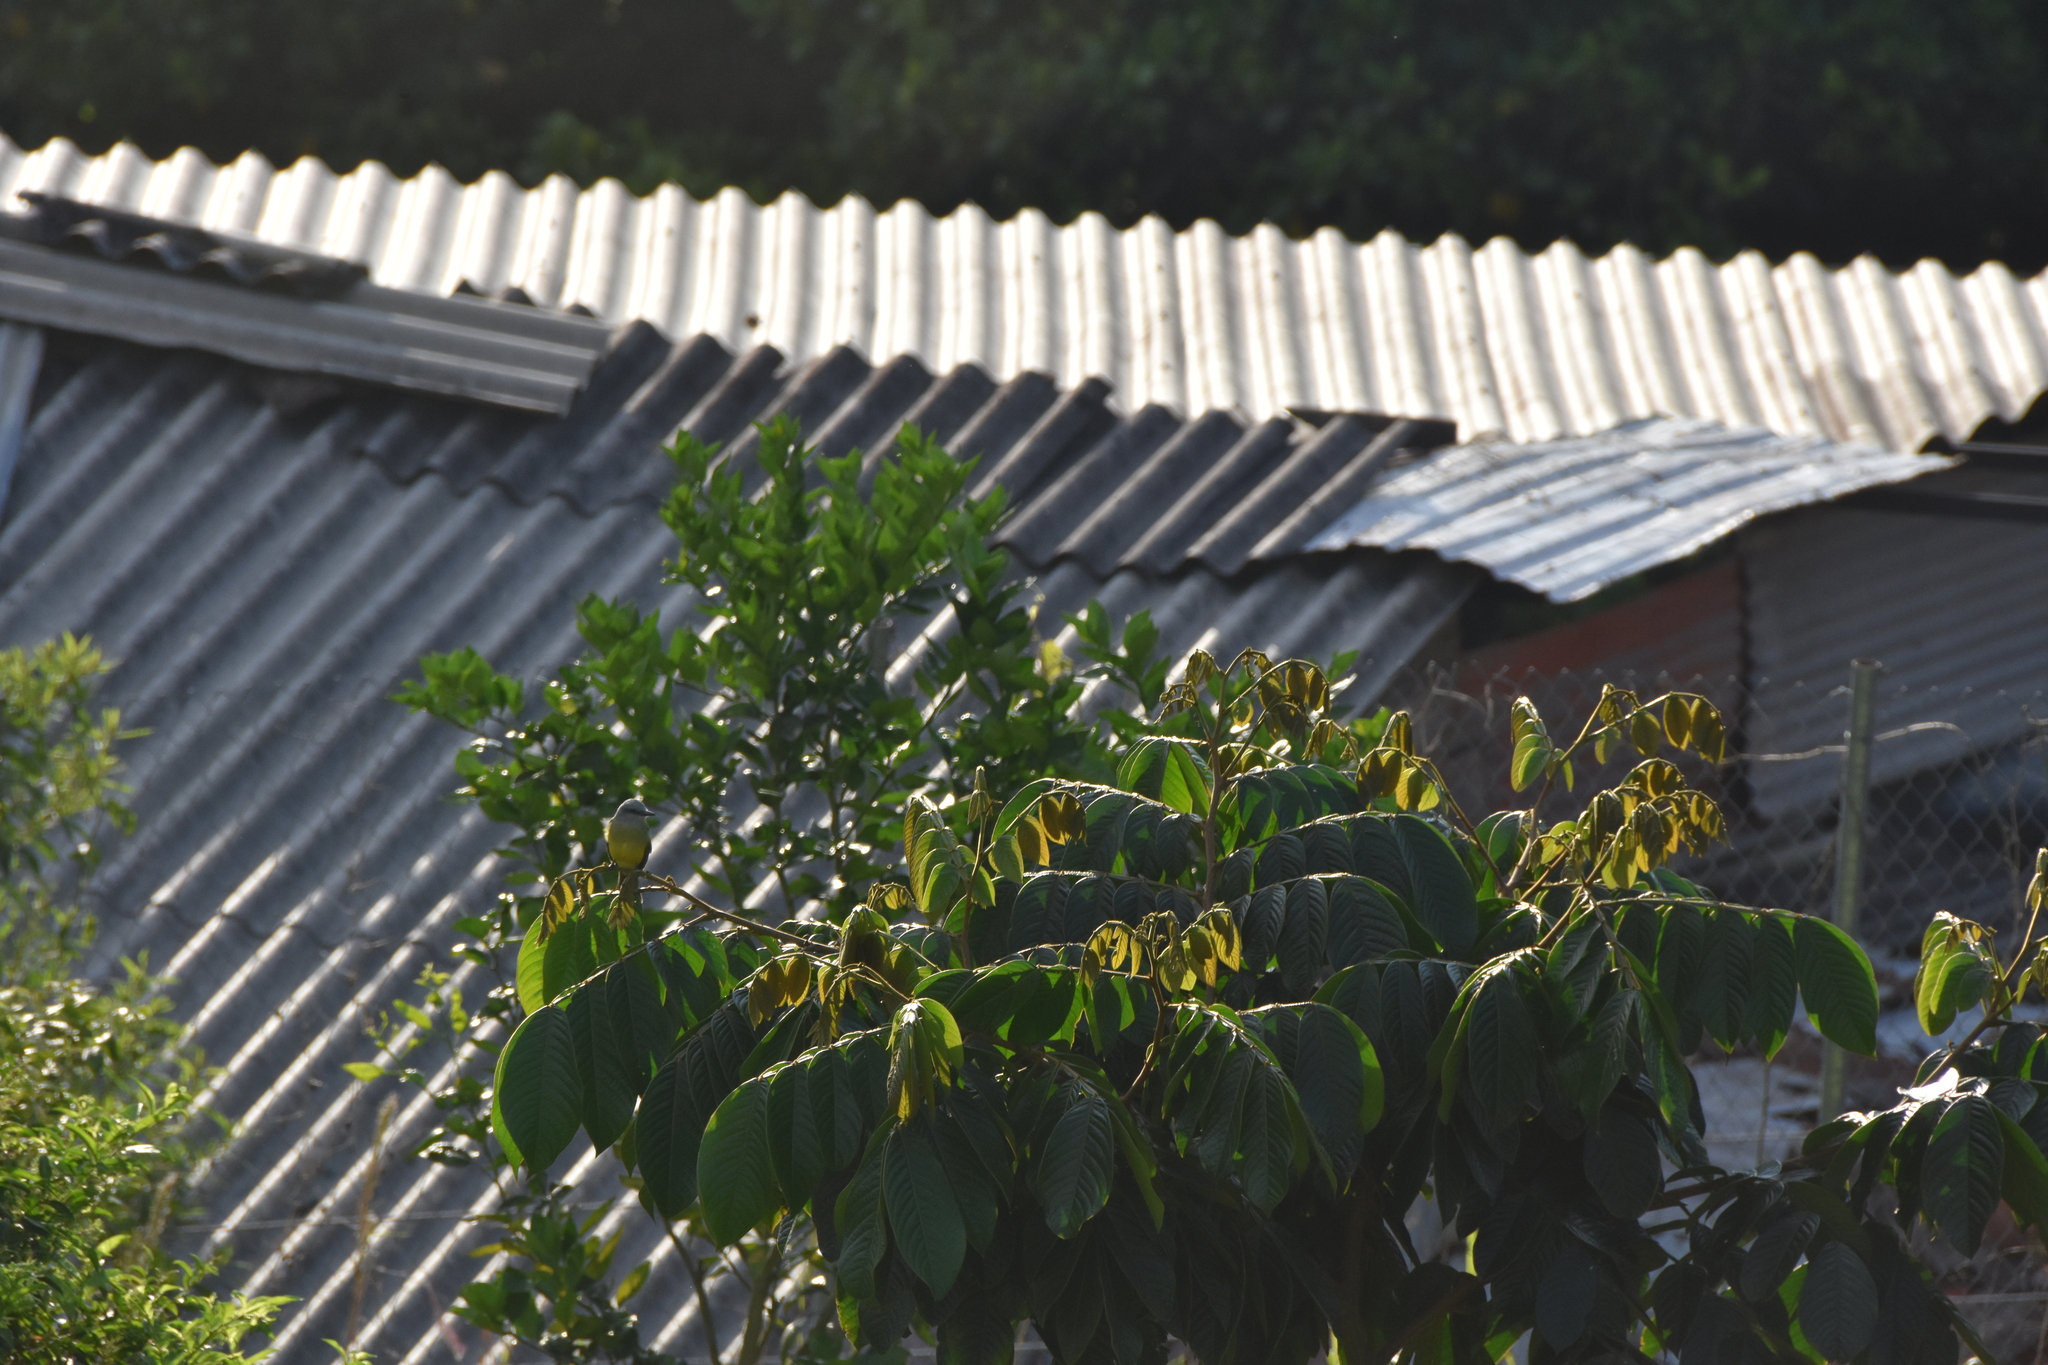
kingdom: Animalia
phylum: Chordata
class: Aves
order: Passeriformes
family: Tyrannidae
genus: Tyrannus
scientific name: Tyrannus melancholicus
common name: Tropical kingbird
